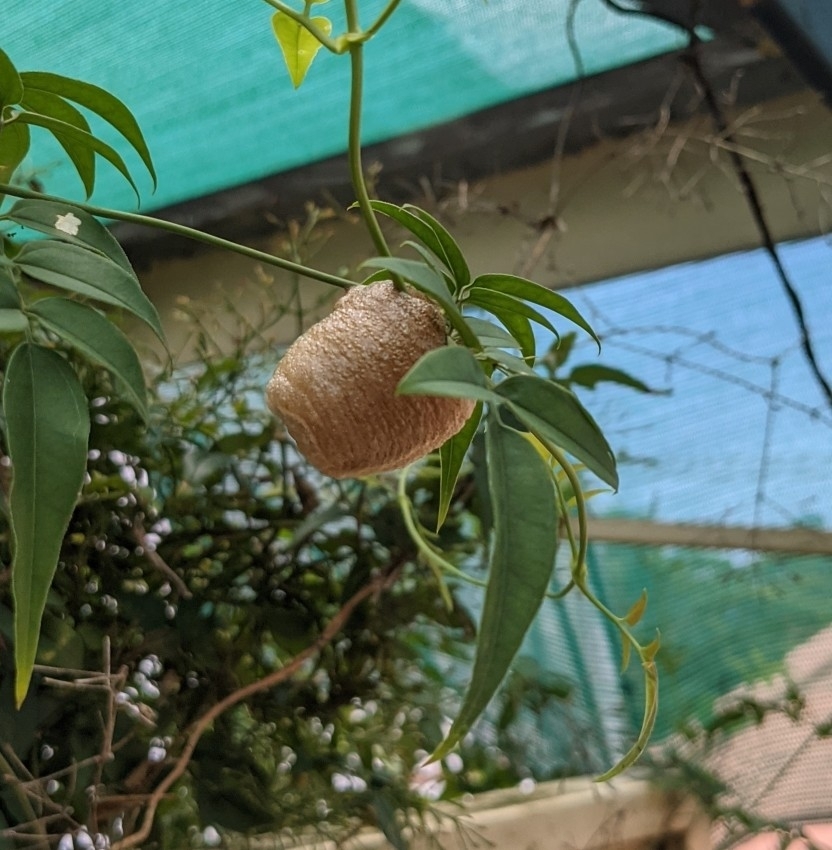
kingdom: Animalia
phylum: Arthropoda
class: Insecta
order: Mantodea
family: Mantidae
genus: Archimantis
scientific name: Archimantis latistyla
